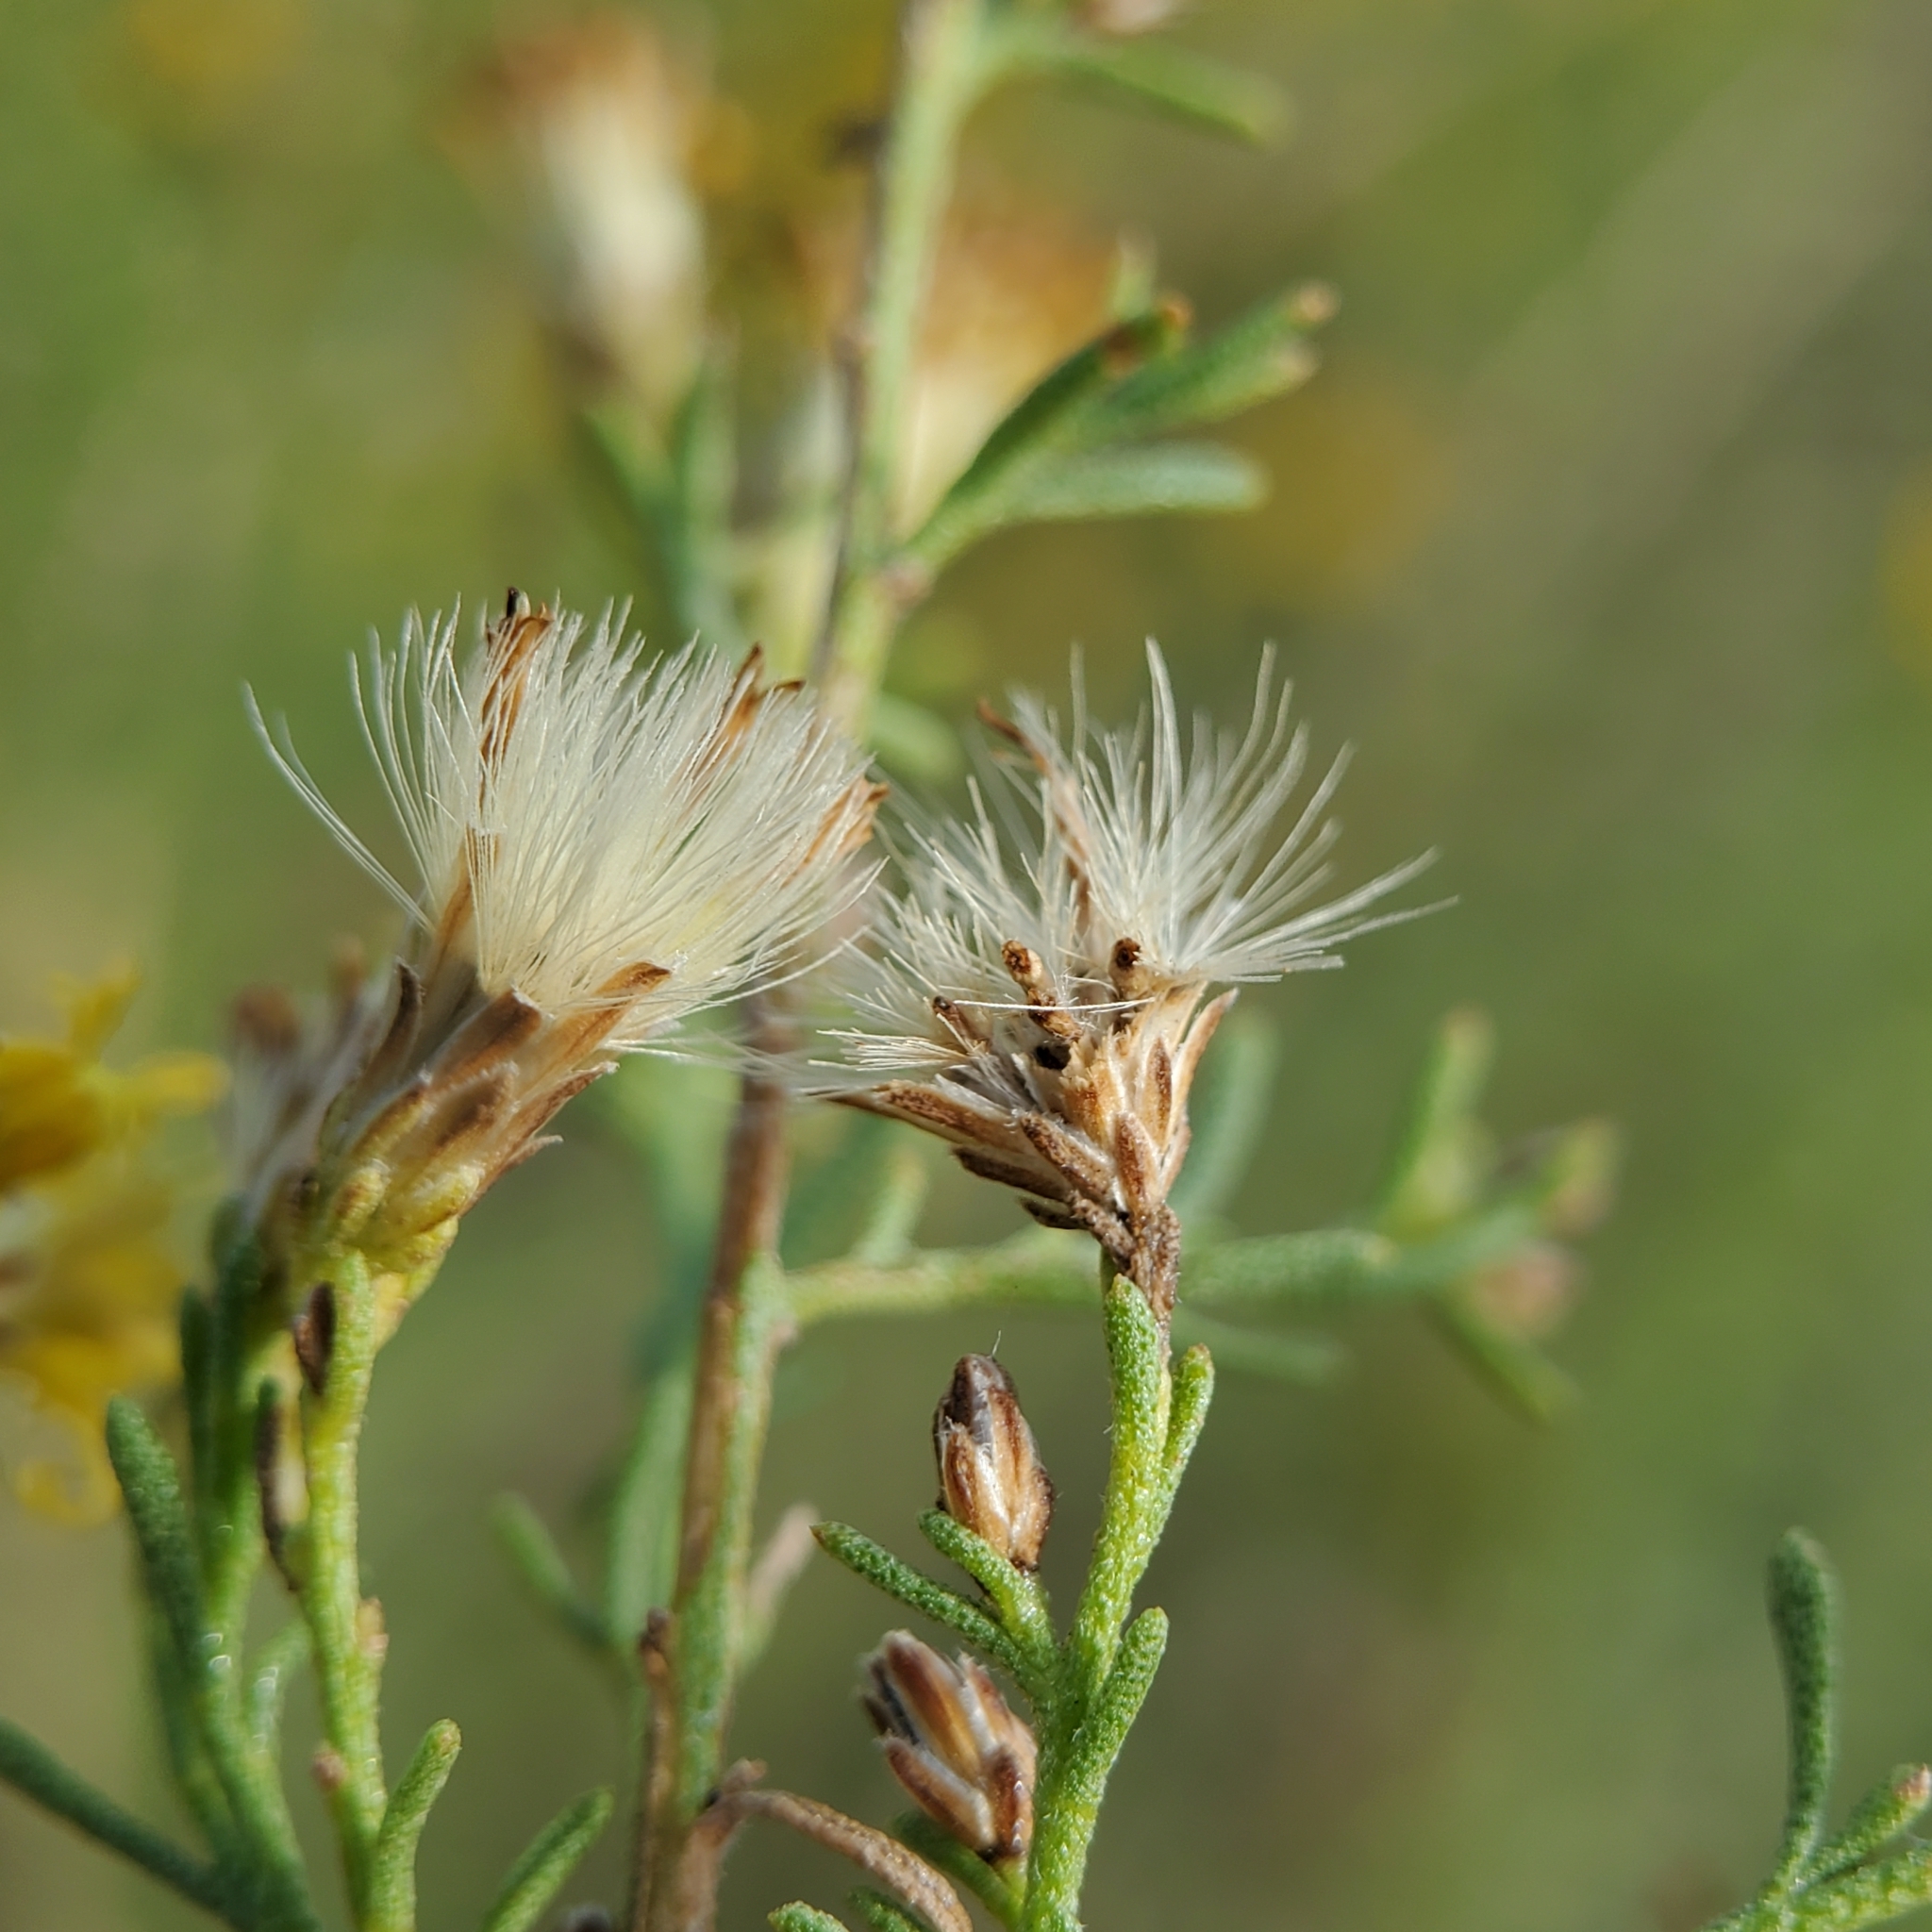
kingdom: Plantae
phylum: Tracheophyta
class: Magnoliopsida
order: Asterales
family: Asteraceae
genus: Ericameria
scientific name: Ericameria palmeri
